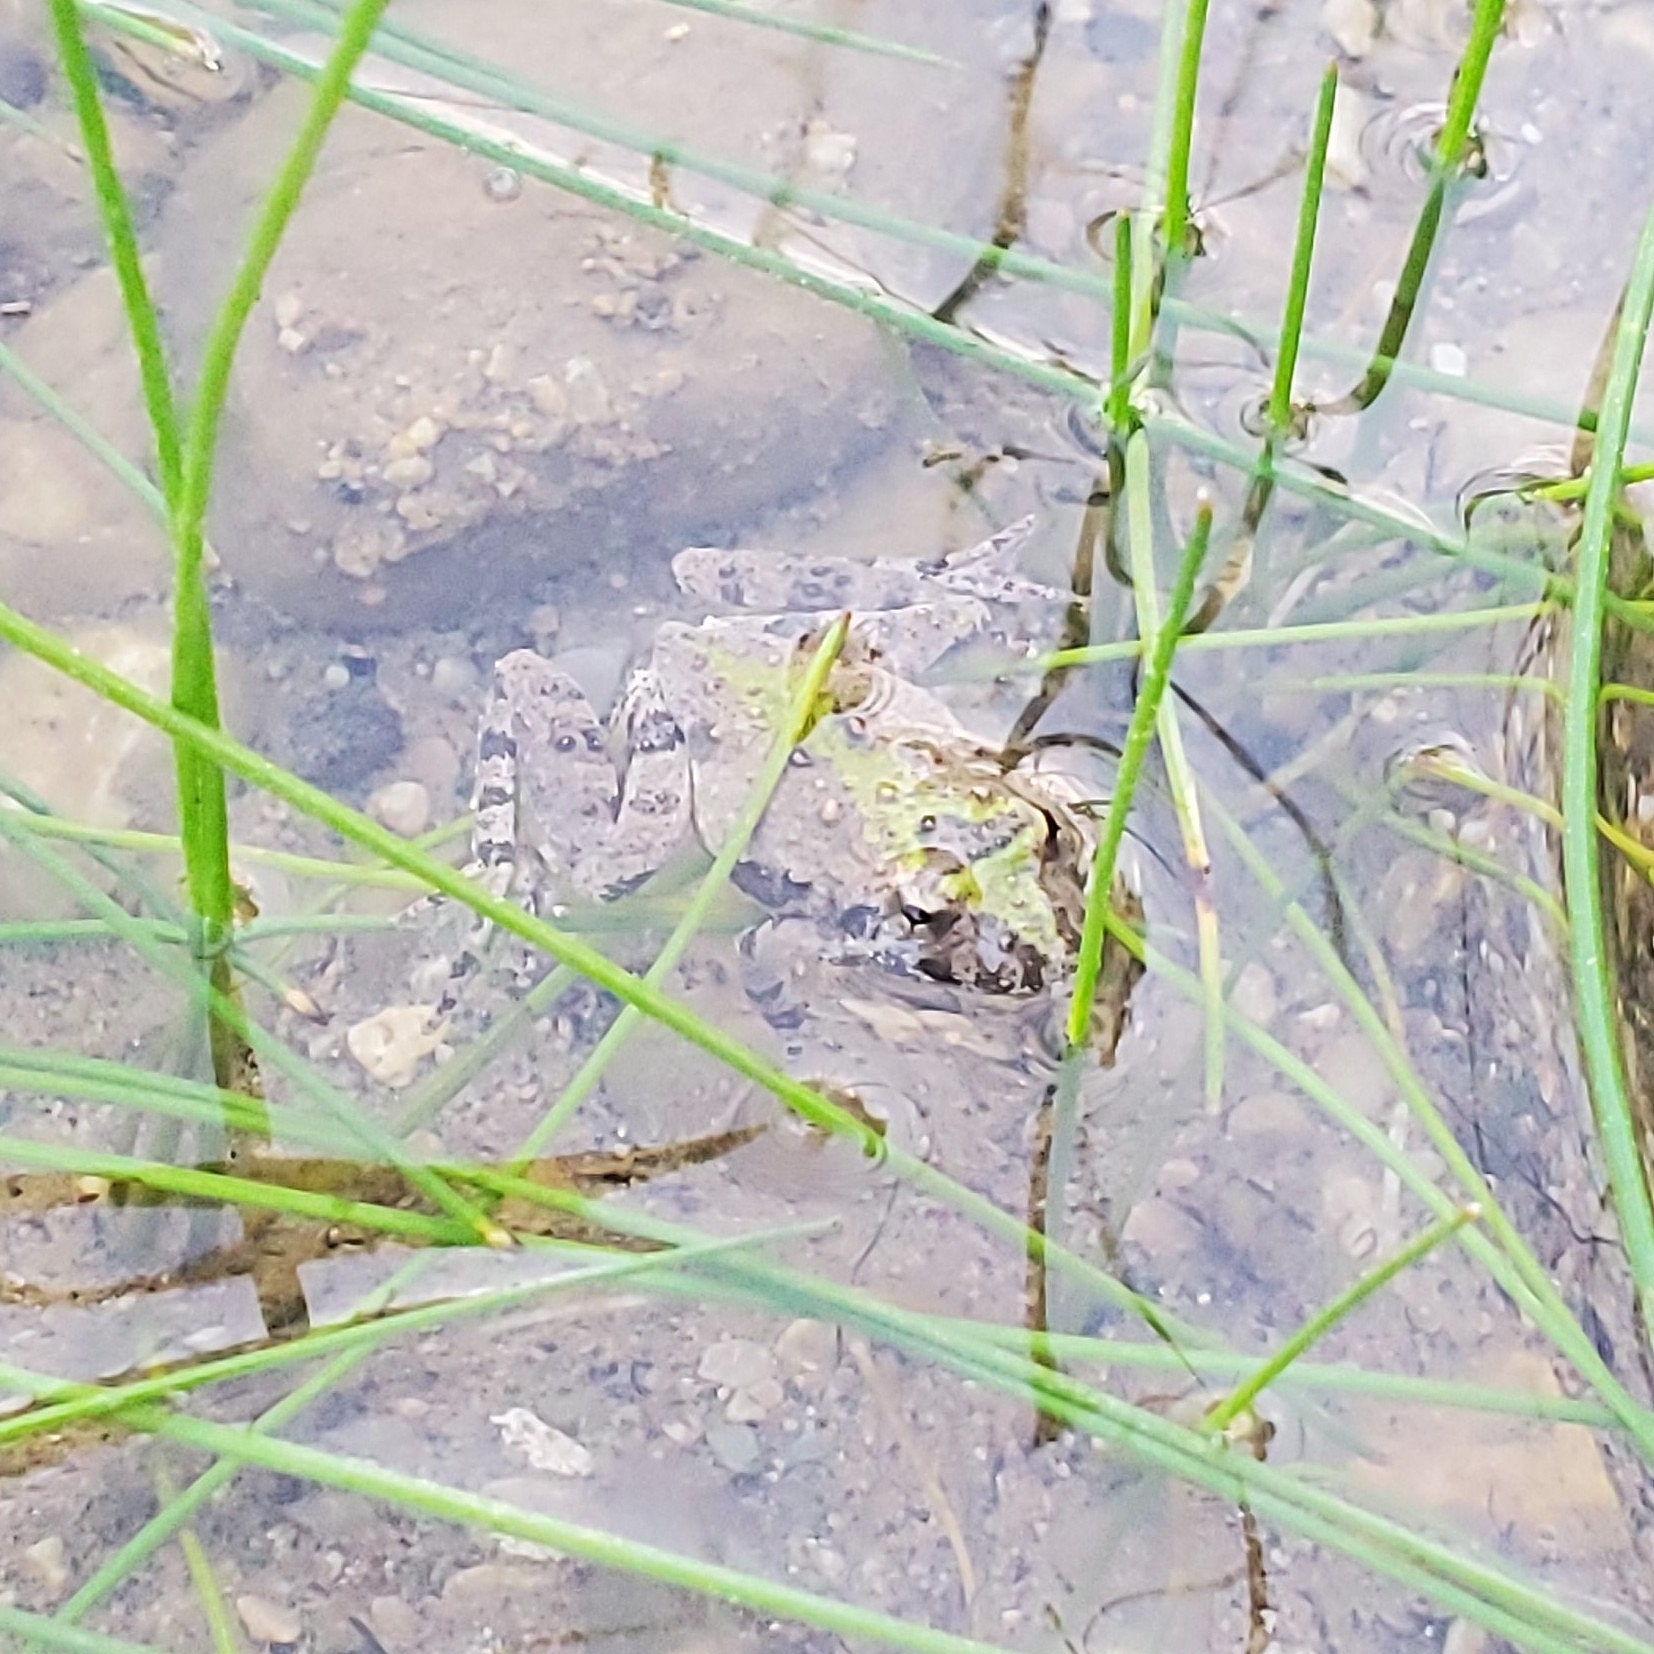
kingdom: Animalia
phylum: Chordata
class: Amphibia
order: Anura
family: Hylidae
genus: Acris
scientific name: Acris blanchardi
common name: Blanchard's cricket frog
